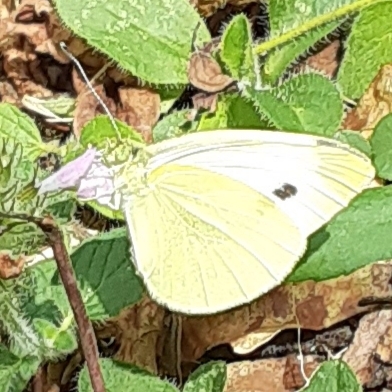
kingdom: Animalia
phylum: Arthropoda
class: Insecta
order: Lepidoptera
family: Pieridae
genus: Pieris
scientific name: Pieris rapae
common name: Small white
